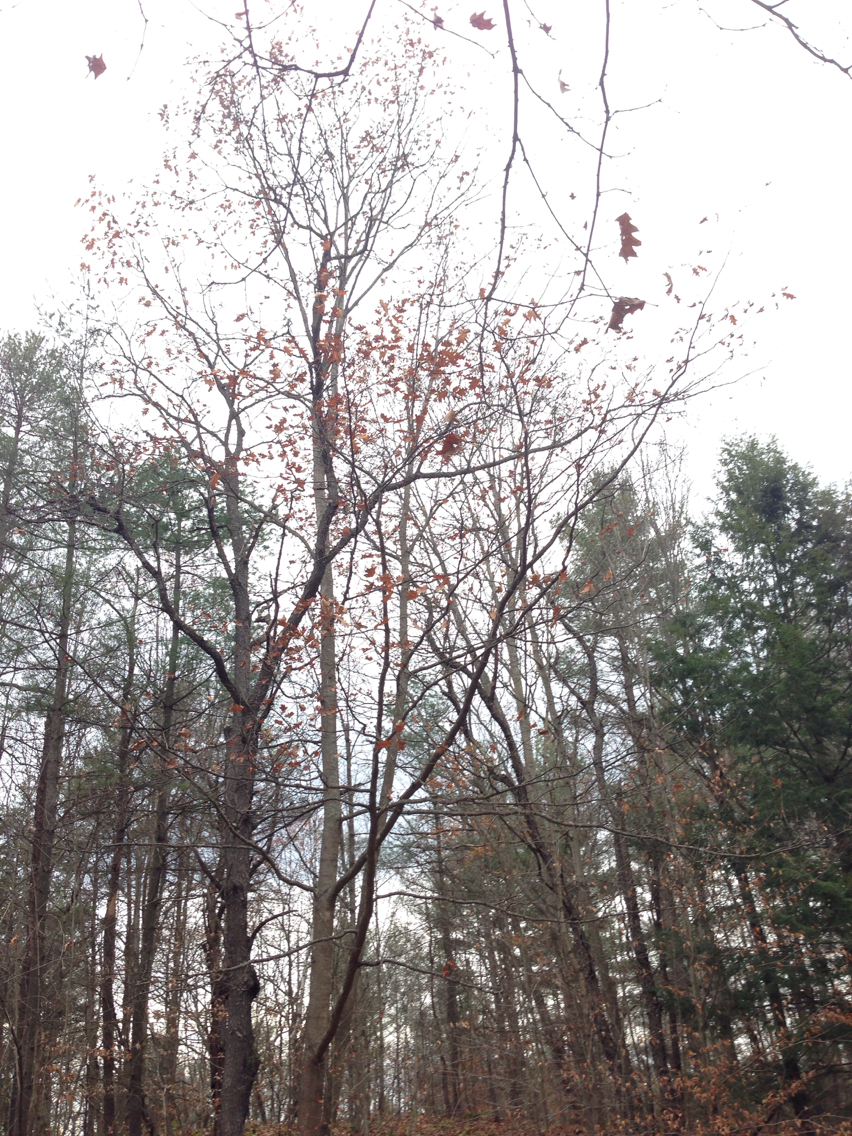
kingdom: Plantae
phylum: Tracheophyta
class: Magnoliopsida
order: Fagales
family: Fagaceae
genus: Quercus
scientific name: Quercus rubra
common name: Red oak
